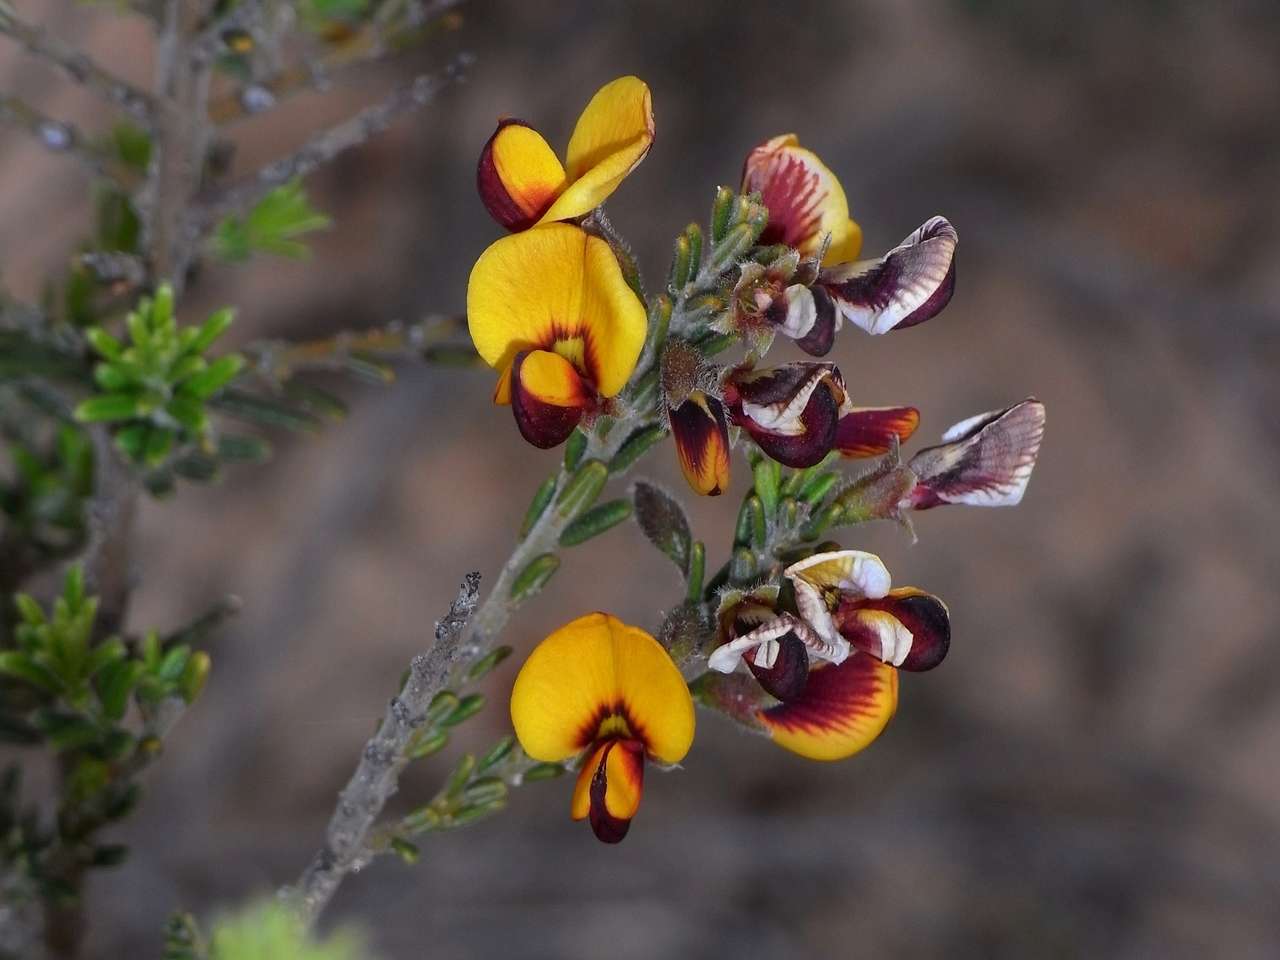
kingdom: Plantae
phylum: Tracheophyta
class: Magnoliopsida
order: Fabales
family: Fabaceae
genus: Aotus
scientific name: Aotus subspinescens
